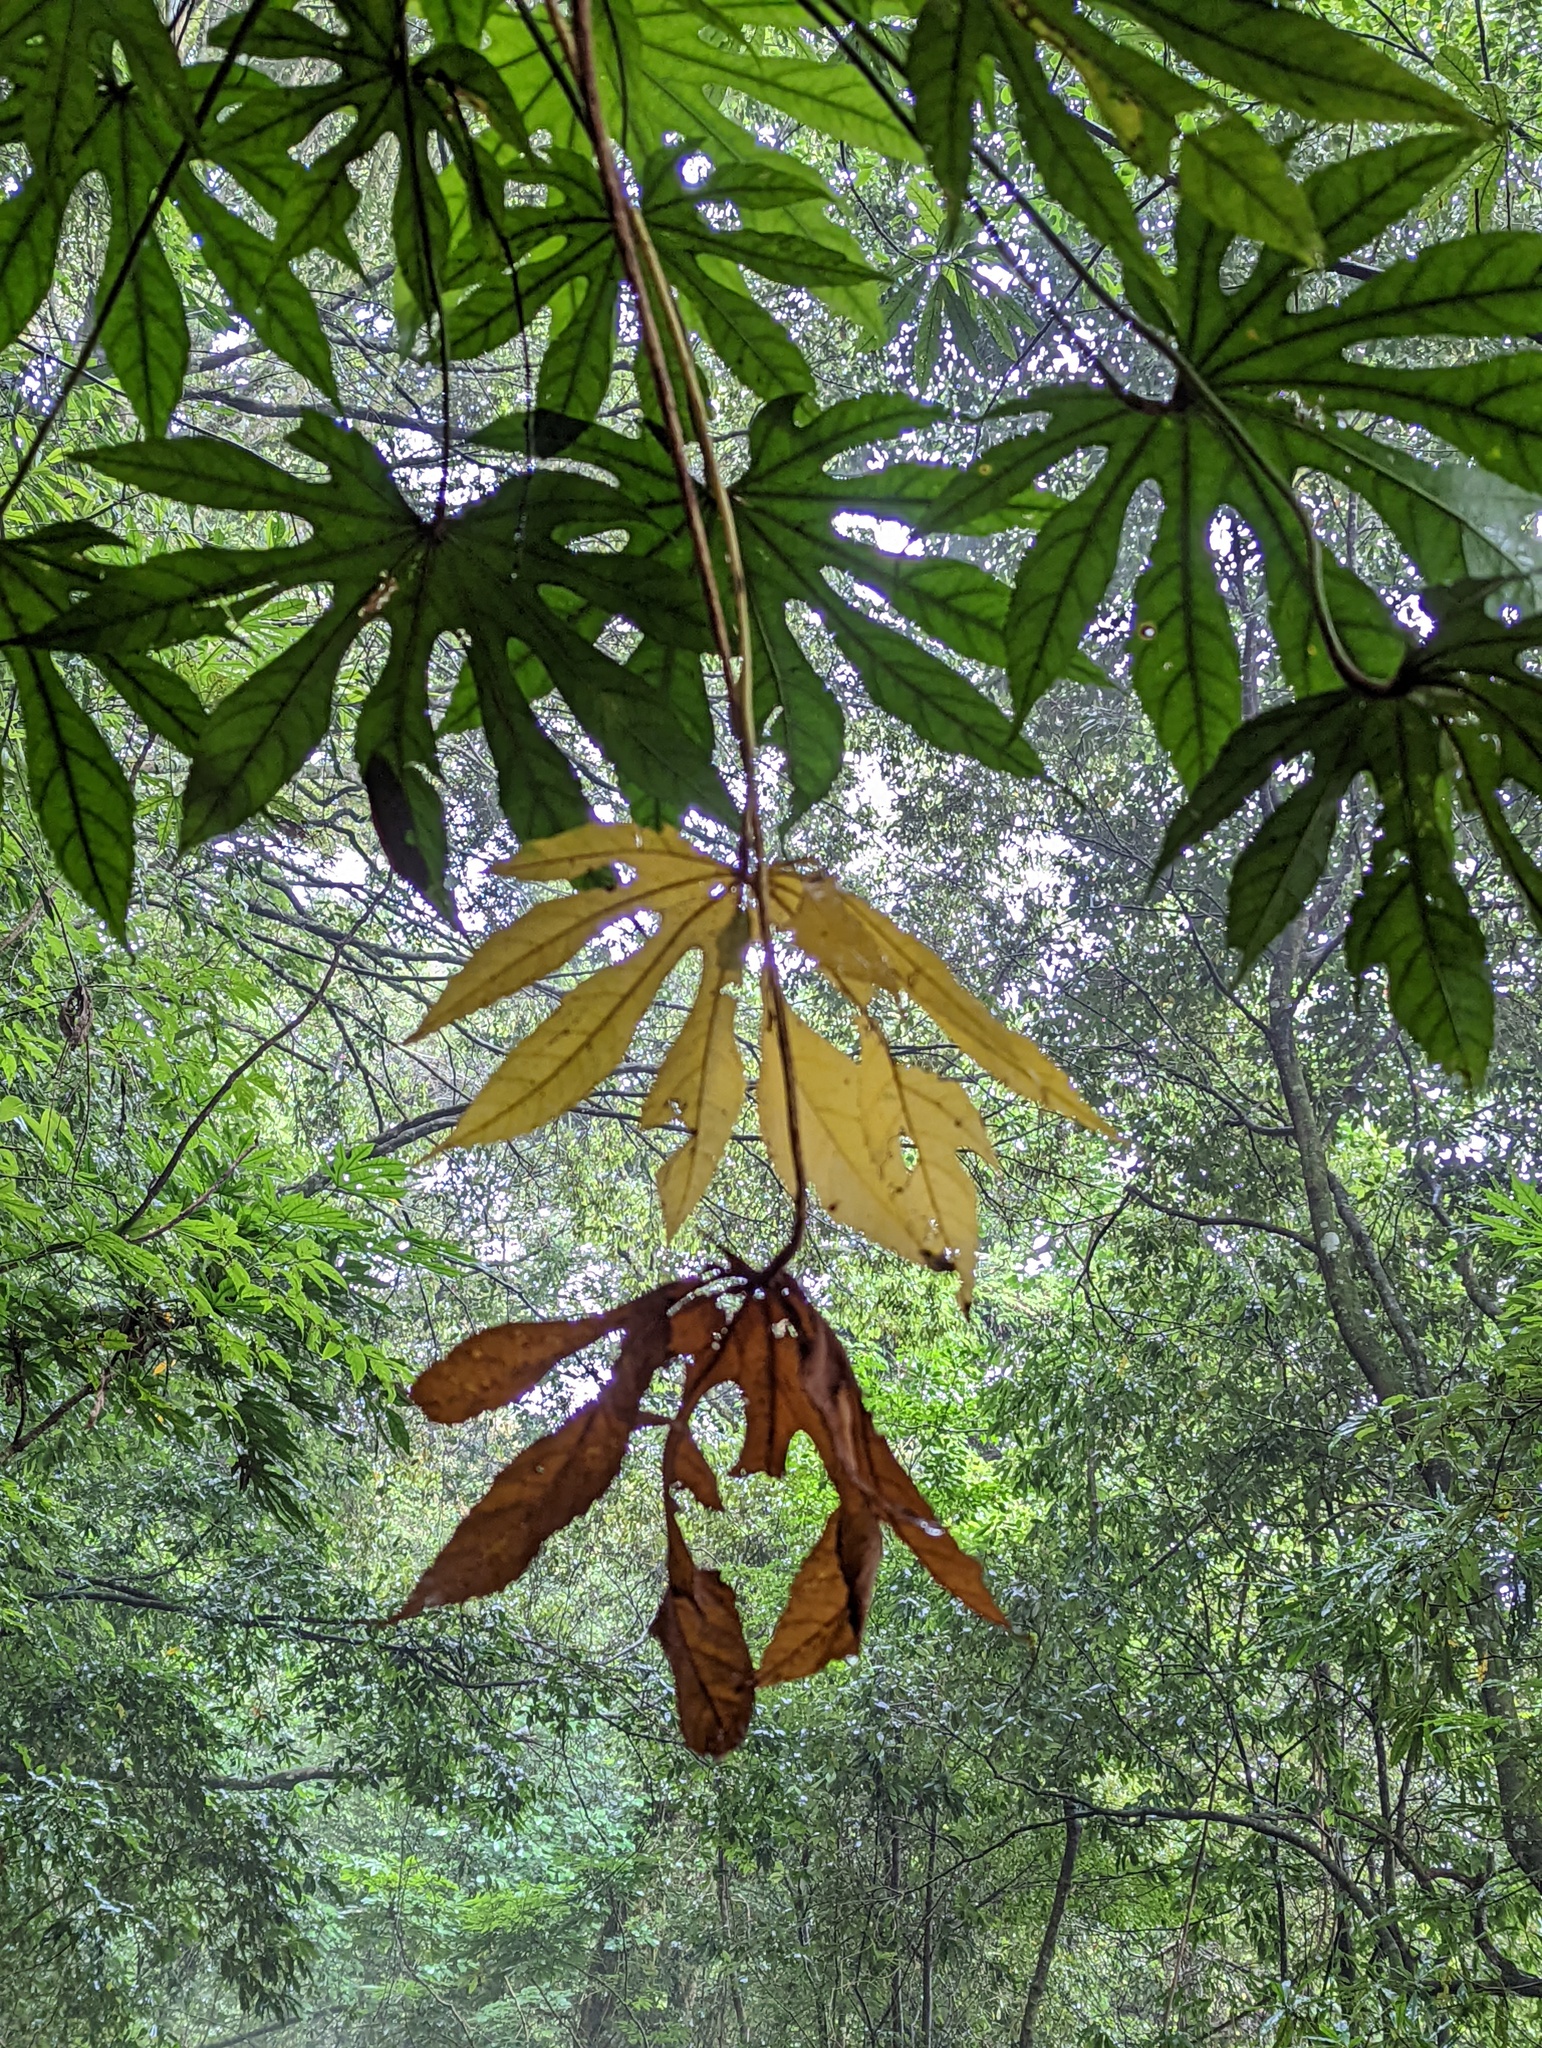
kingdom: Plantae
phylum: Tracheophyta
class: Magnoliopsida
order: Apiales
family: Araliaceae
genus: Fatsia
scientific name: Fatsia polycarpa
